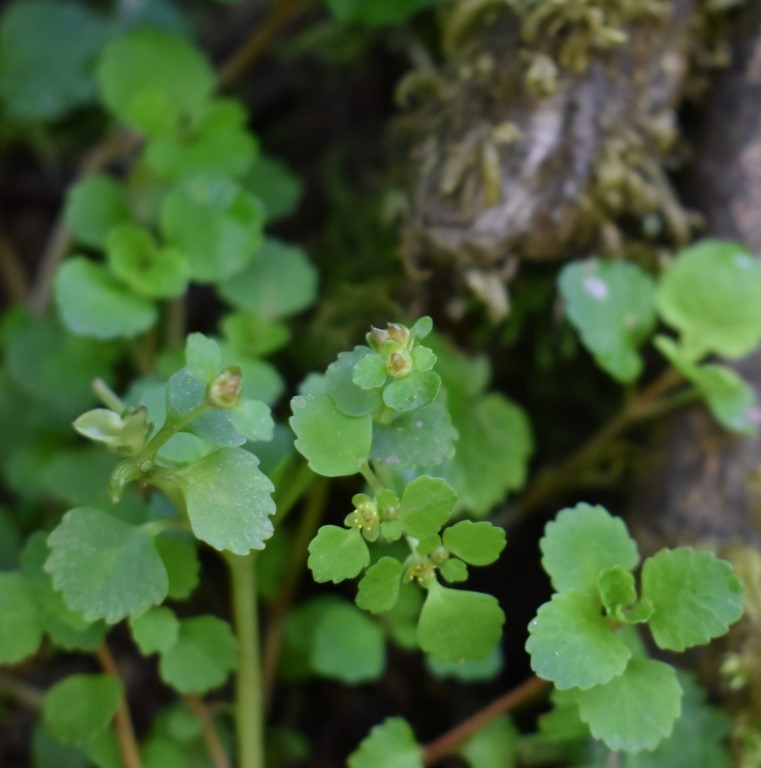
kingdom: Plantae
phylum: Tracheophyta
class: Magnoliopsida
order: Saxifragales
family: Saxifragaceae
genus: Chrysosplenium
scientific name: Chrysosplenium glechomifolium
